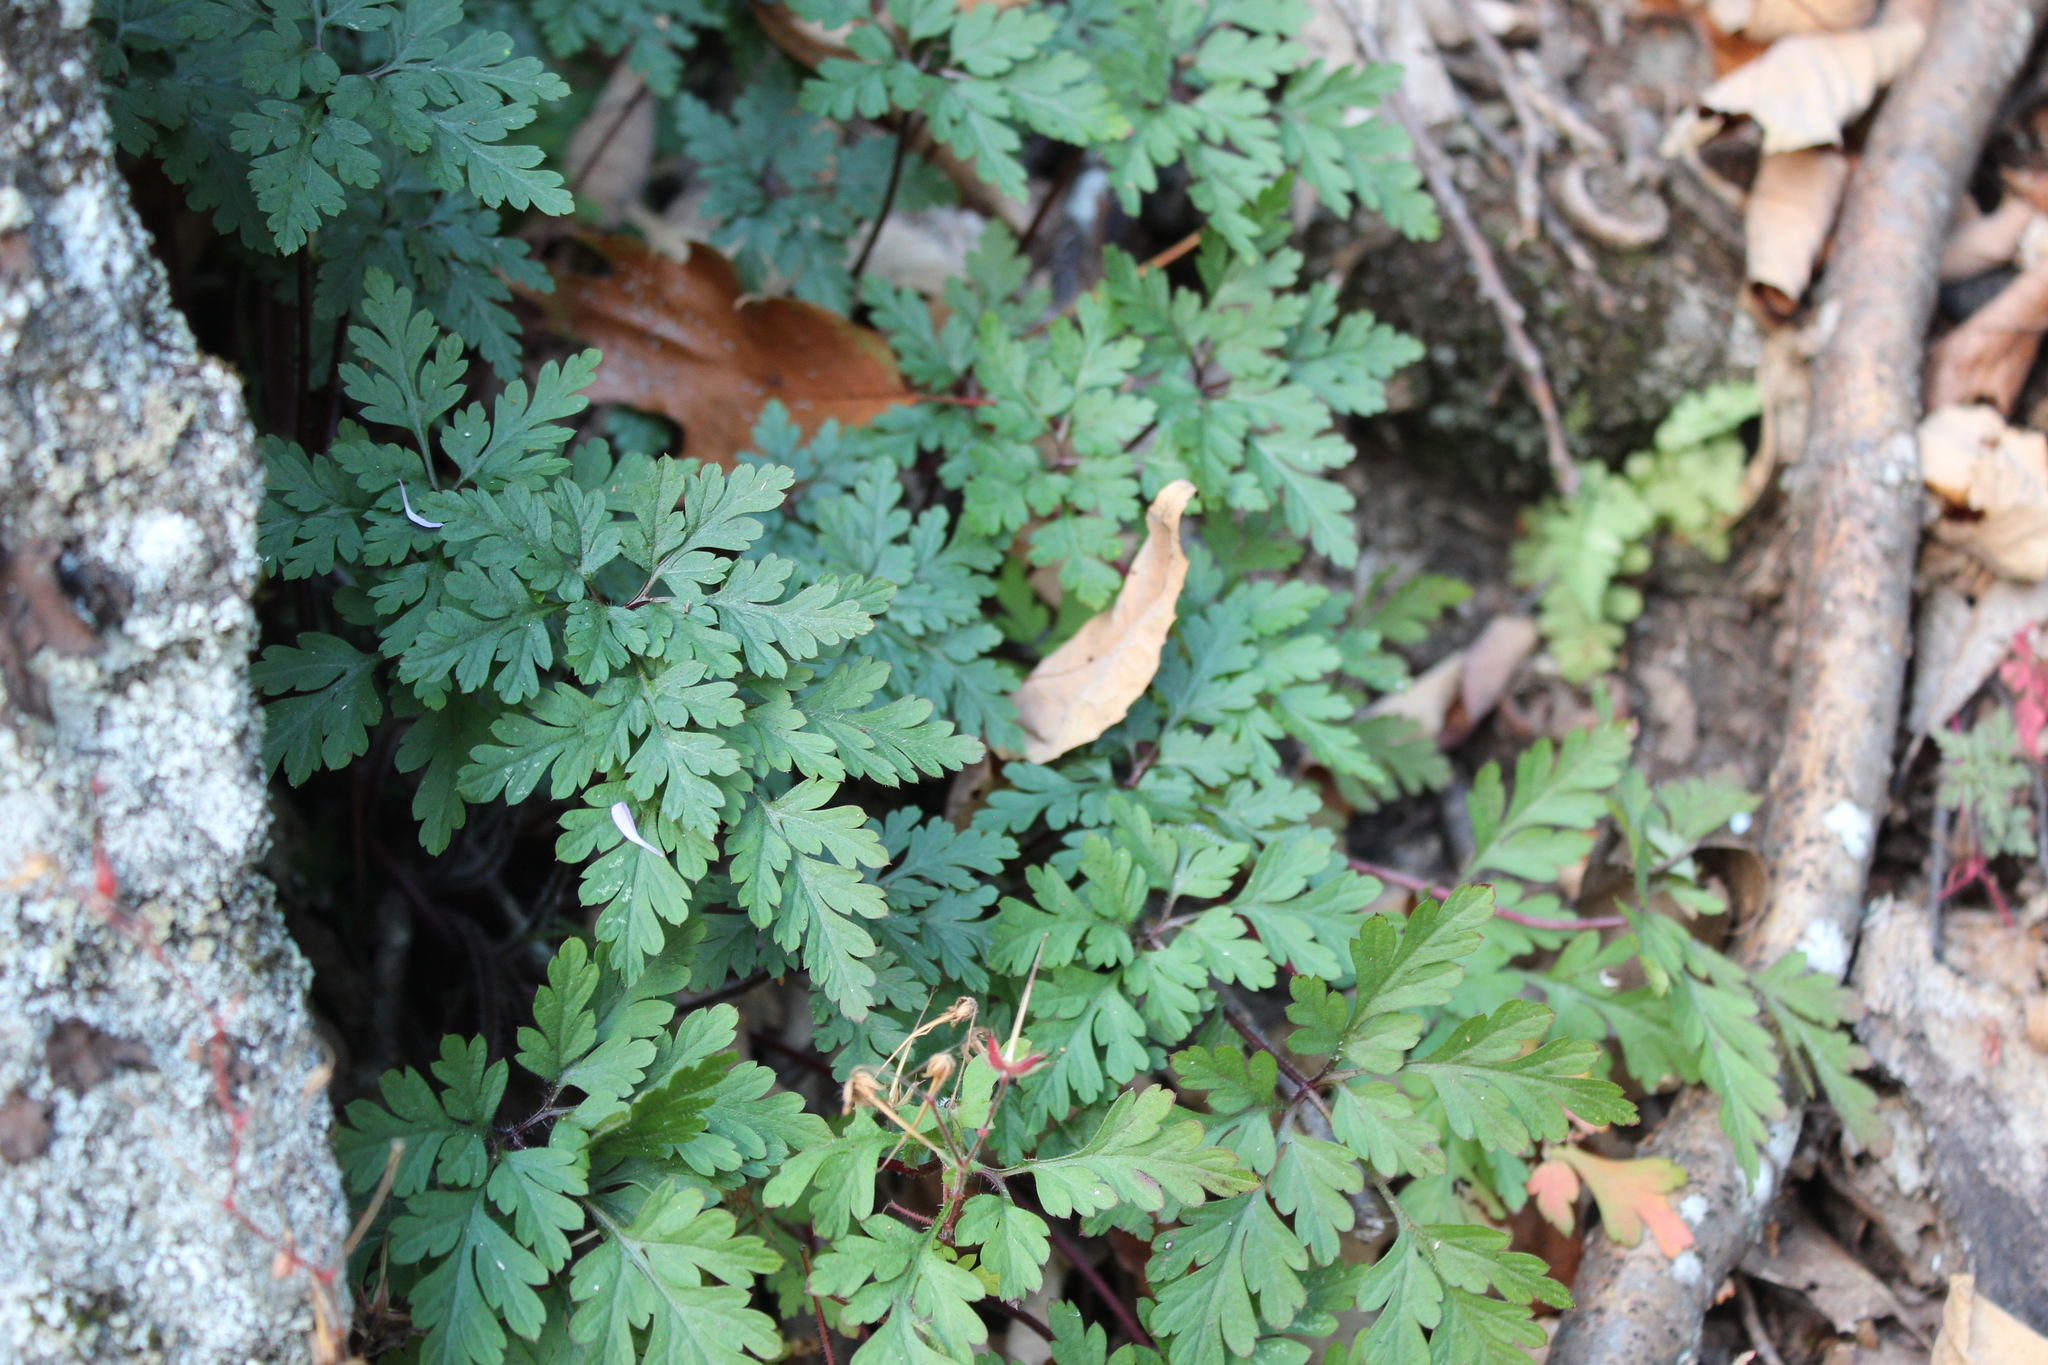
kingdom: Plantae
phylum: Tracheophyta
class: Magnoliopsida
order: Geraniales
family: Geraniaceae
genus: Geranium
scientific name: Geranium robertianum
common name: Herb-robert
